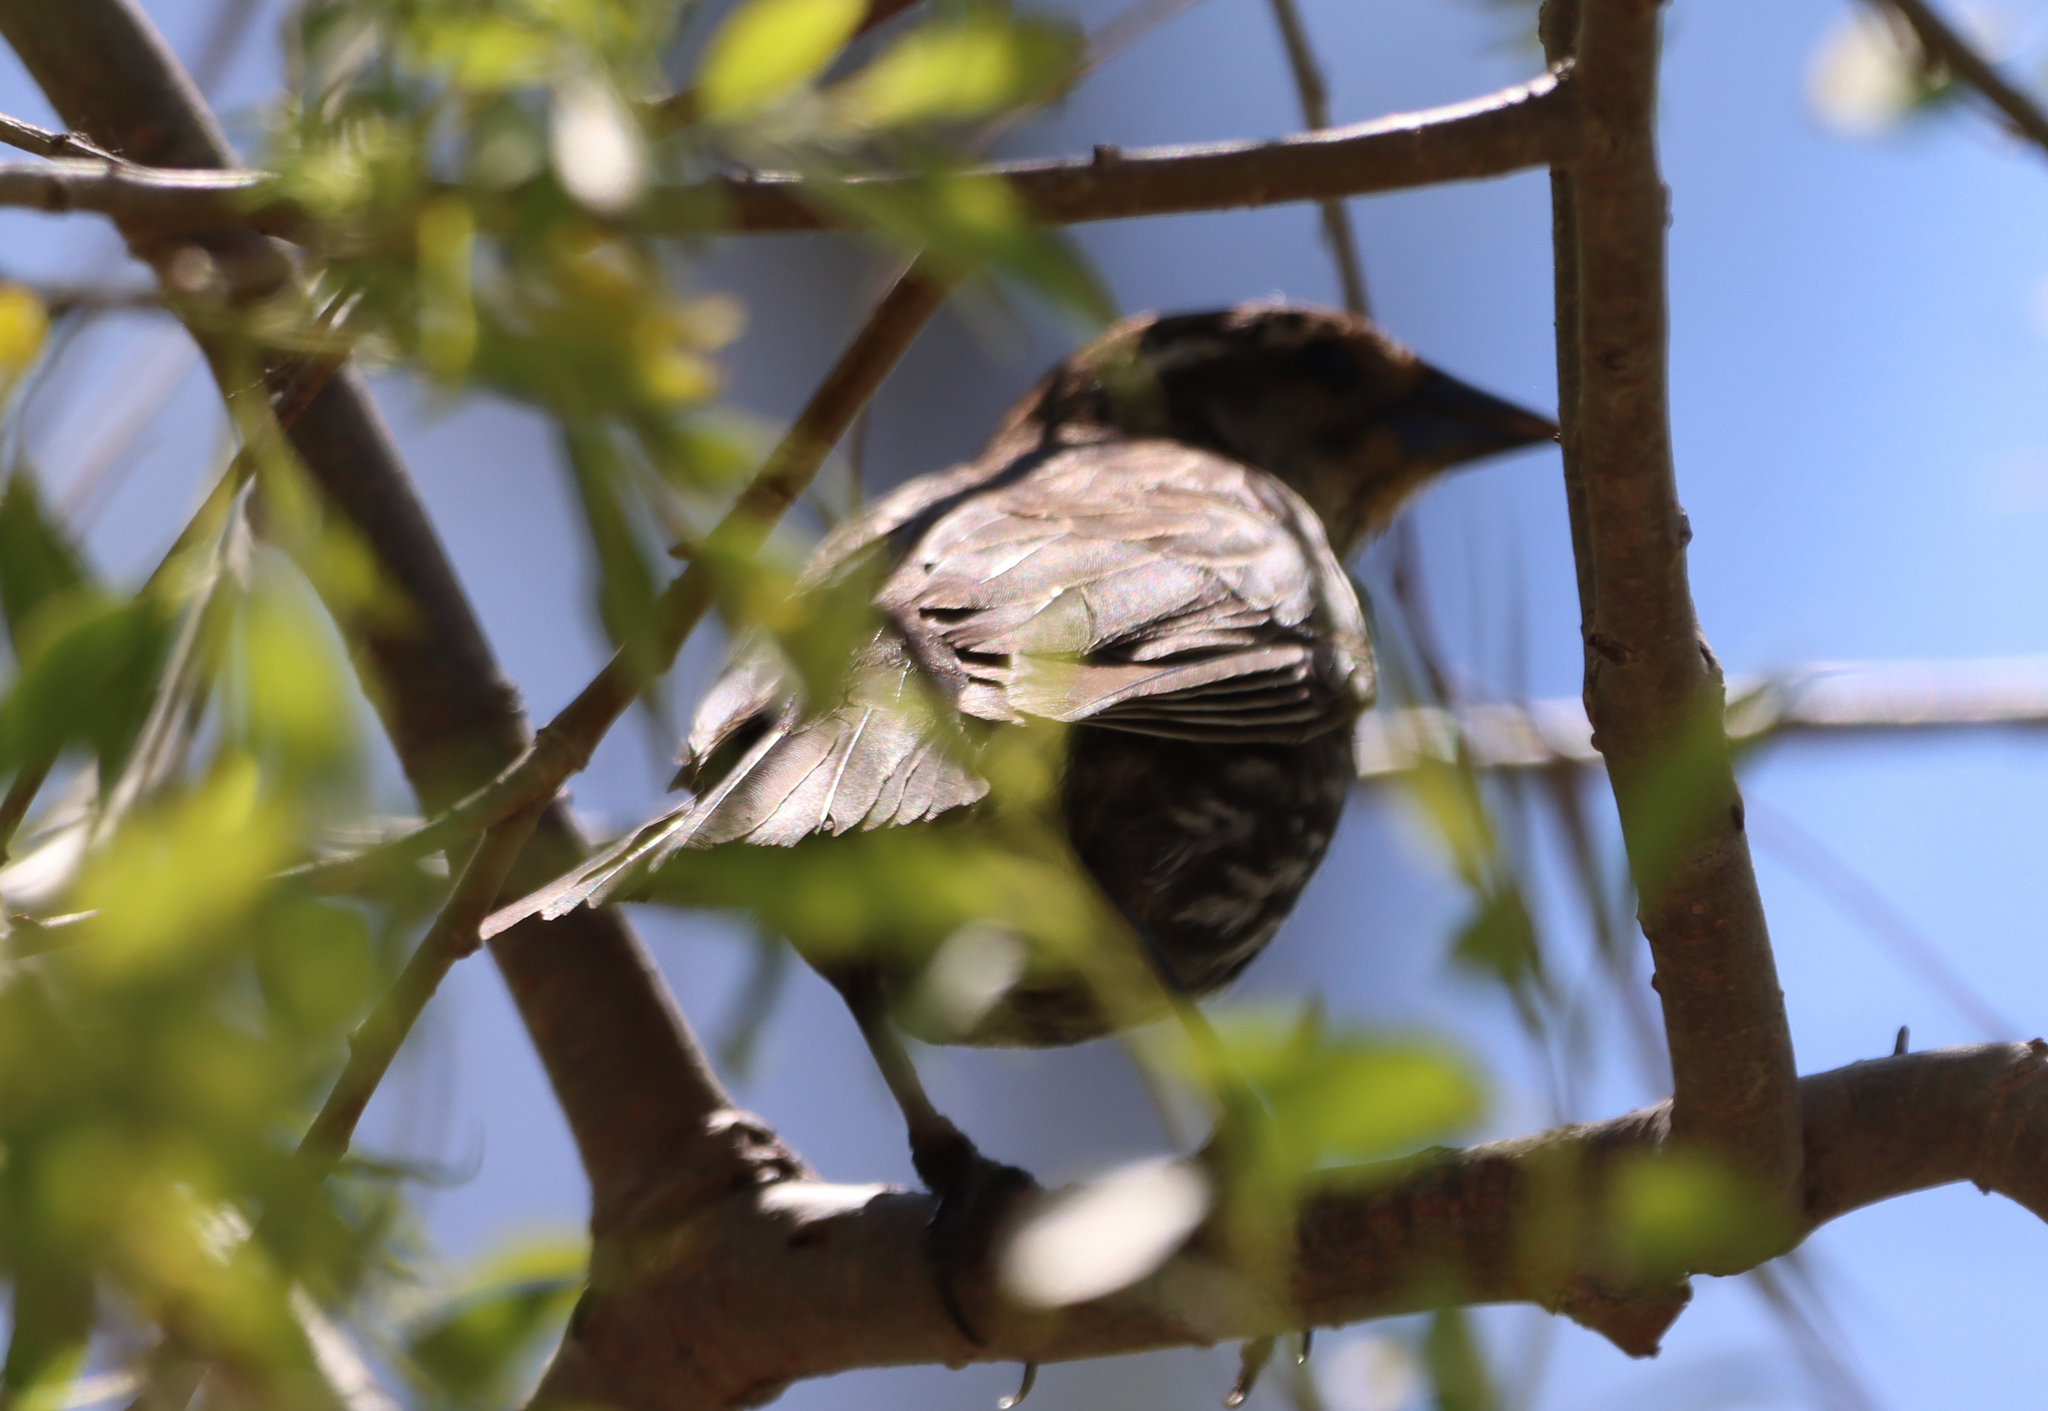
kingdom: Animalia
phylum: Chordata
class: Aves
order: Passeriformes
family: Icteridae
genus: Agelaius
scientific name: Agelaius phoeniceus
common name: Red-winged blackbird
